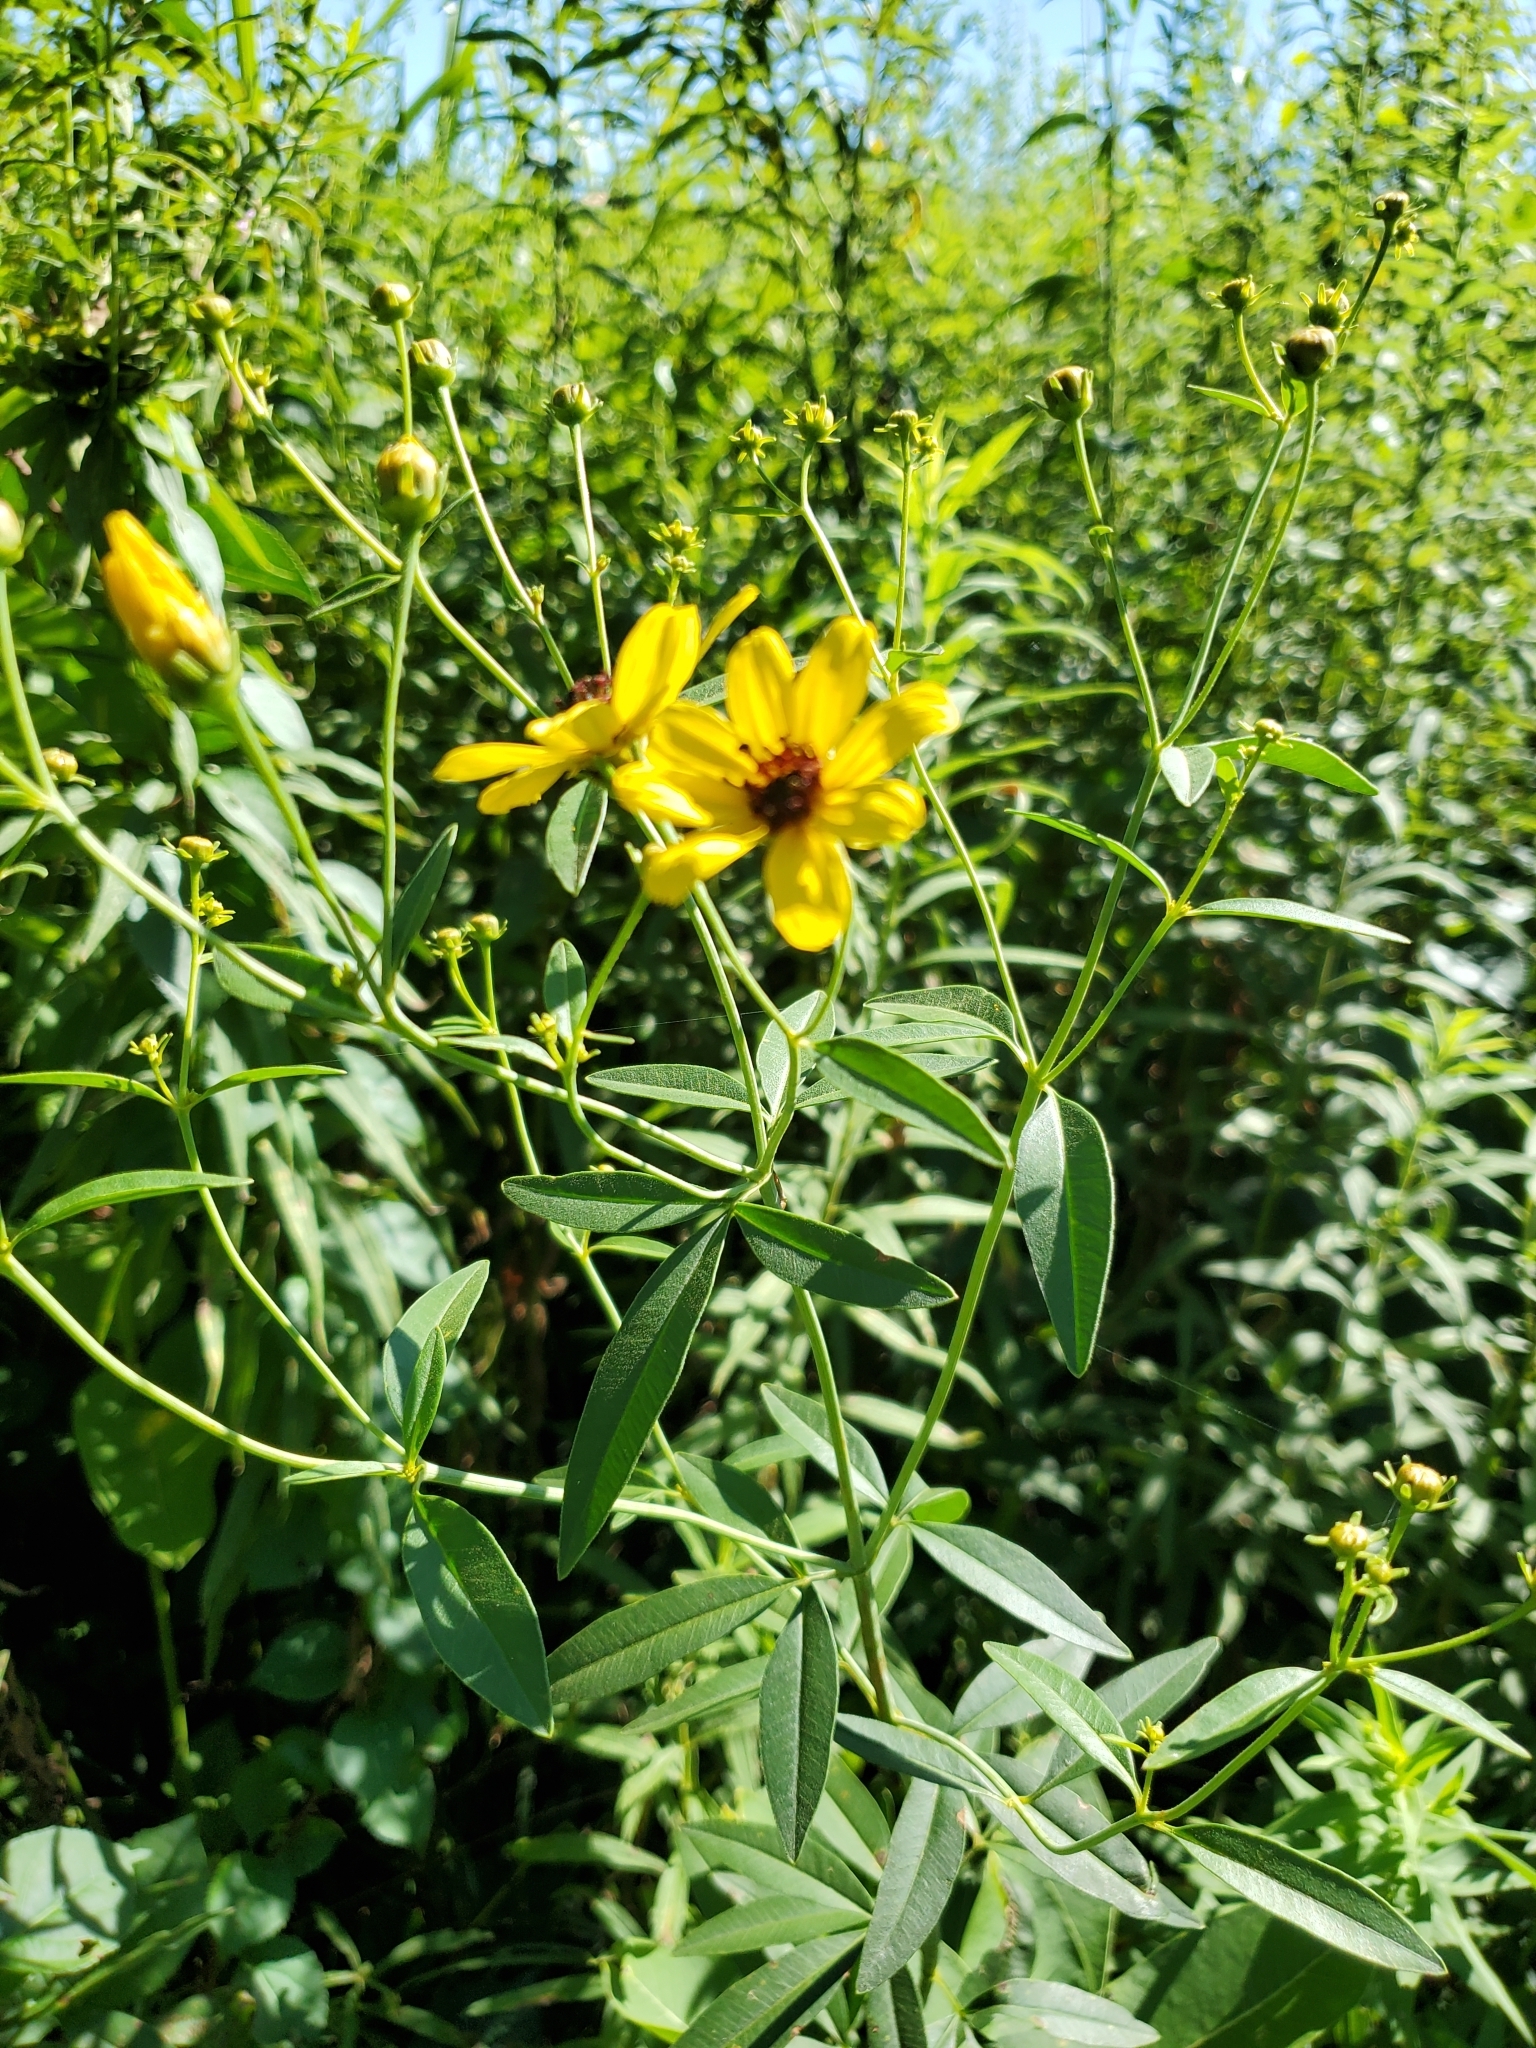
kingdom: Plantae
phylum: Tracheophyta
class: Magnoliopsida
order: Asterales
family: Asteraceae
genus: Coreopsis
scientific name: Coreopsis tripteris
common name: Tall coreopsis
